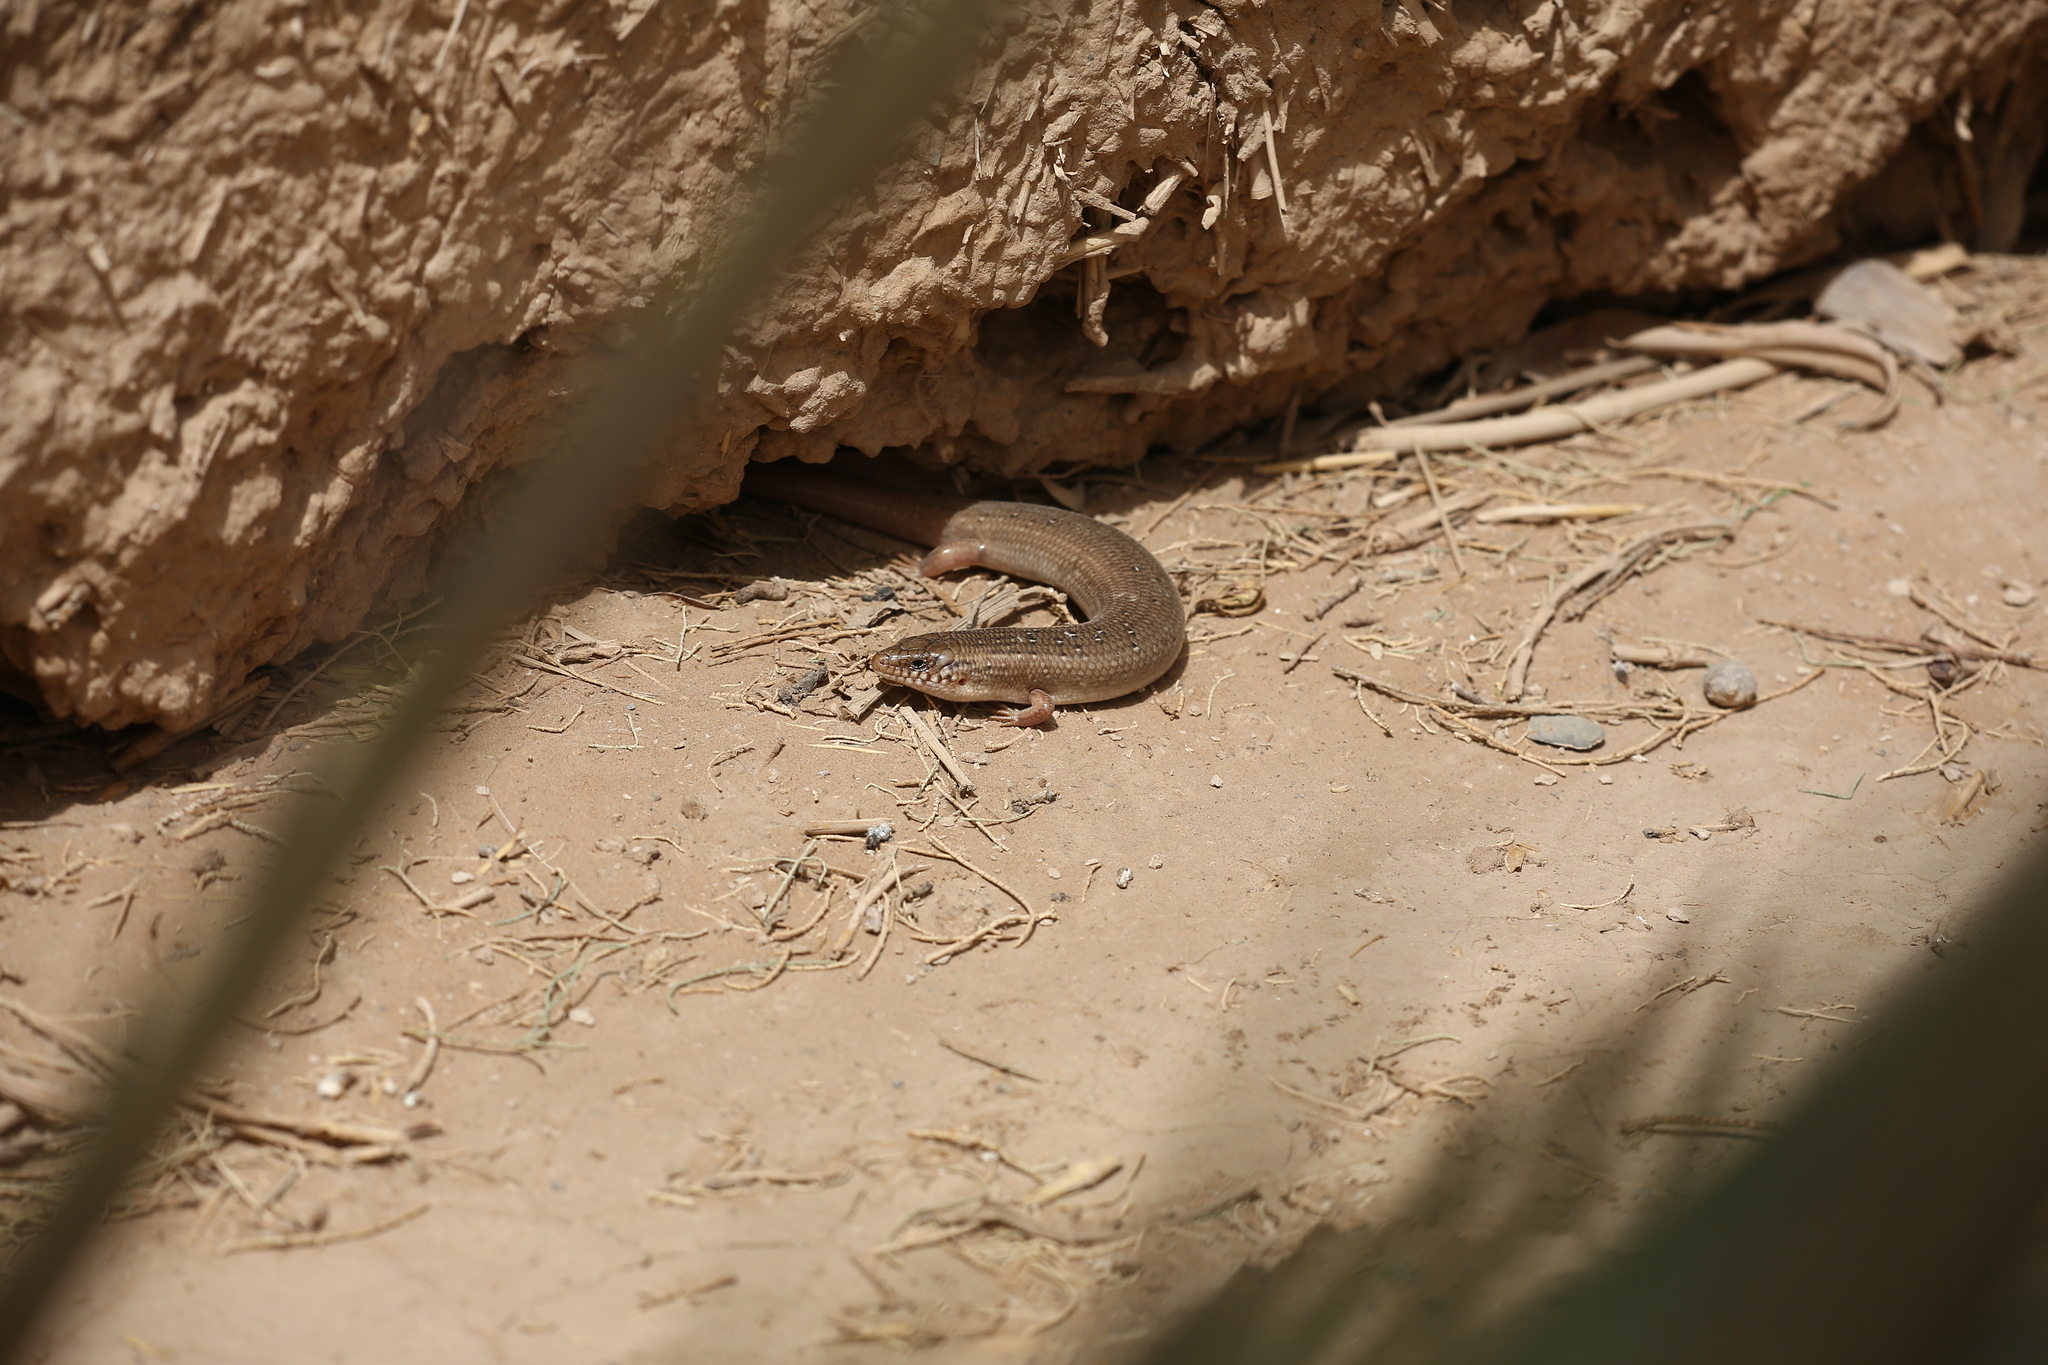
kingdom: Animalia
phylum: Chordata
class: Squamata
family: Scincidae
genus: Chalcides
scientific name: Chalcides ocellatus
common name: Ocellated skink
